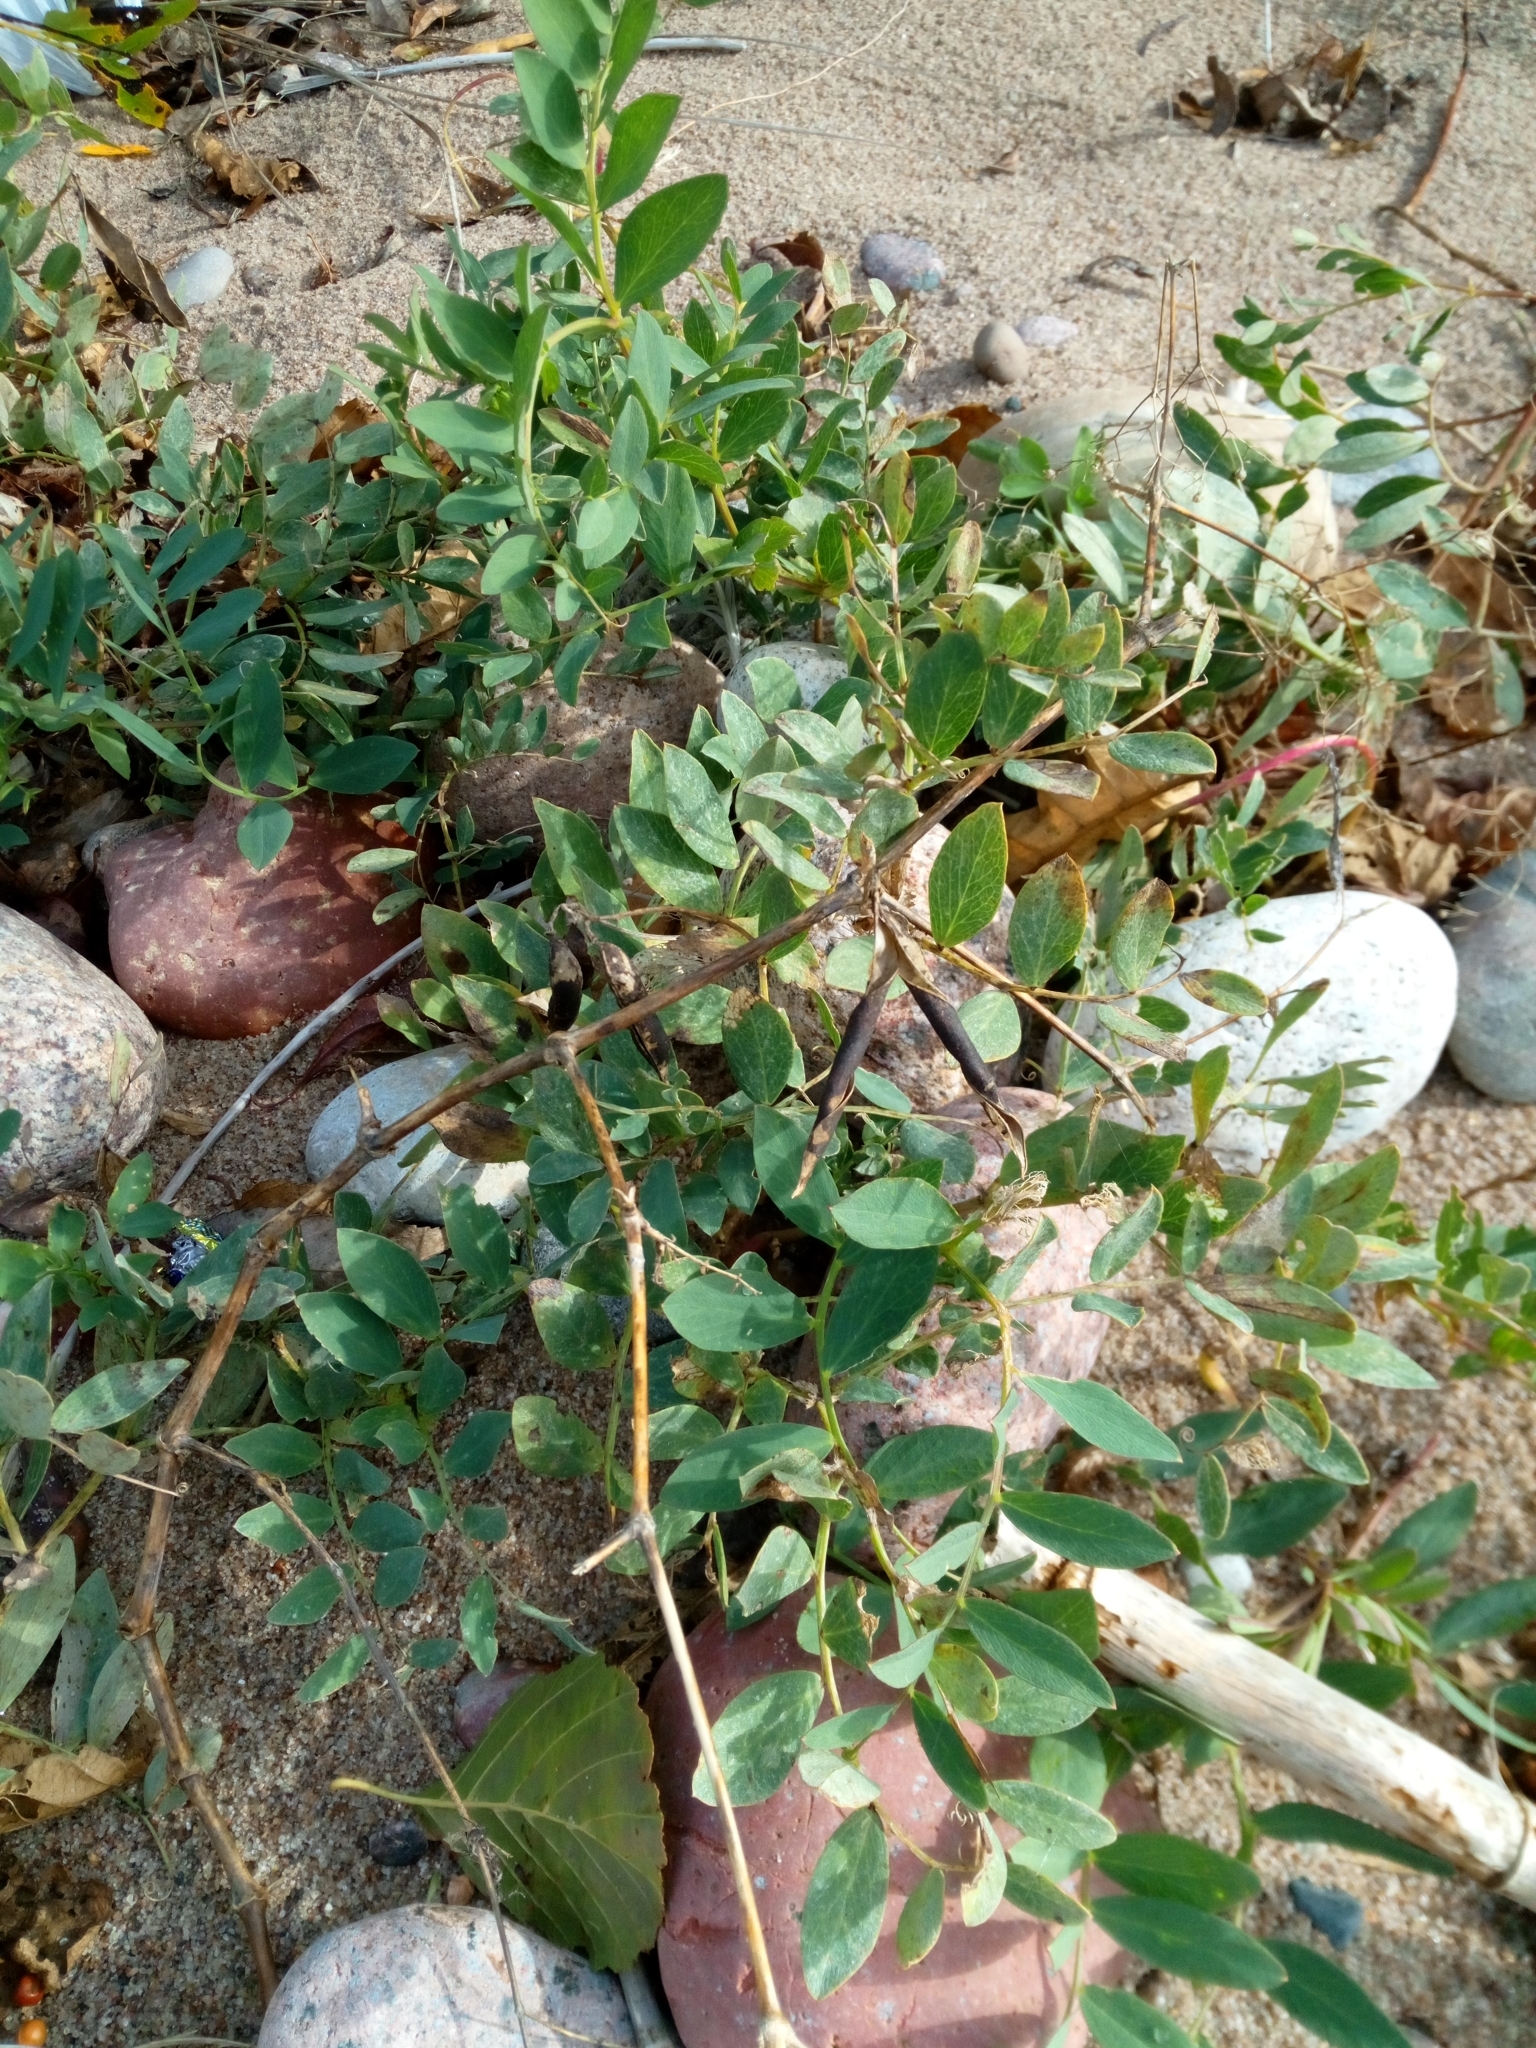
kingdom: Plantae
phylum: Tracheophyta
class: Magnoliopsida
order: Fabales
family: Fabaceae
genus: Lathyrus
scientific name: Lathyrus japonicus
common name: Sea pea
